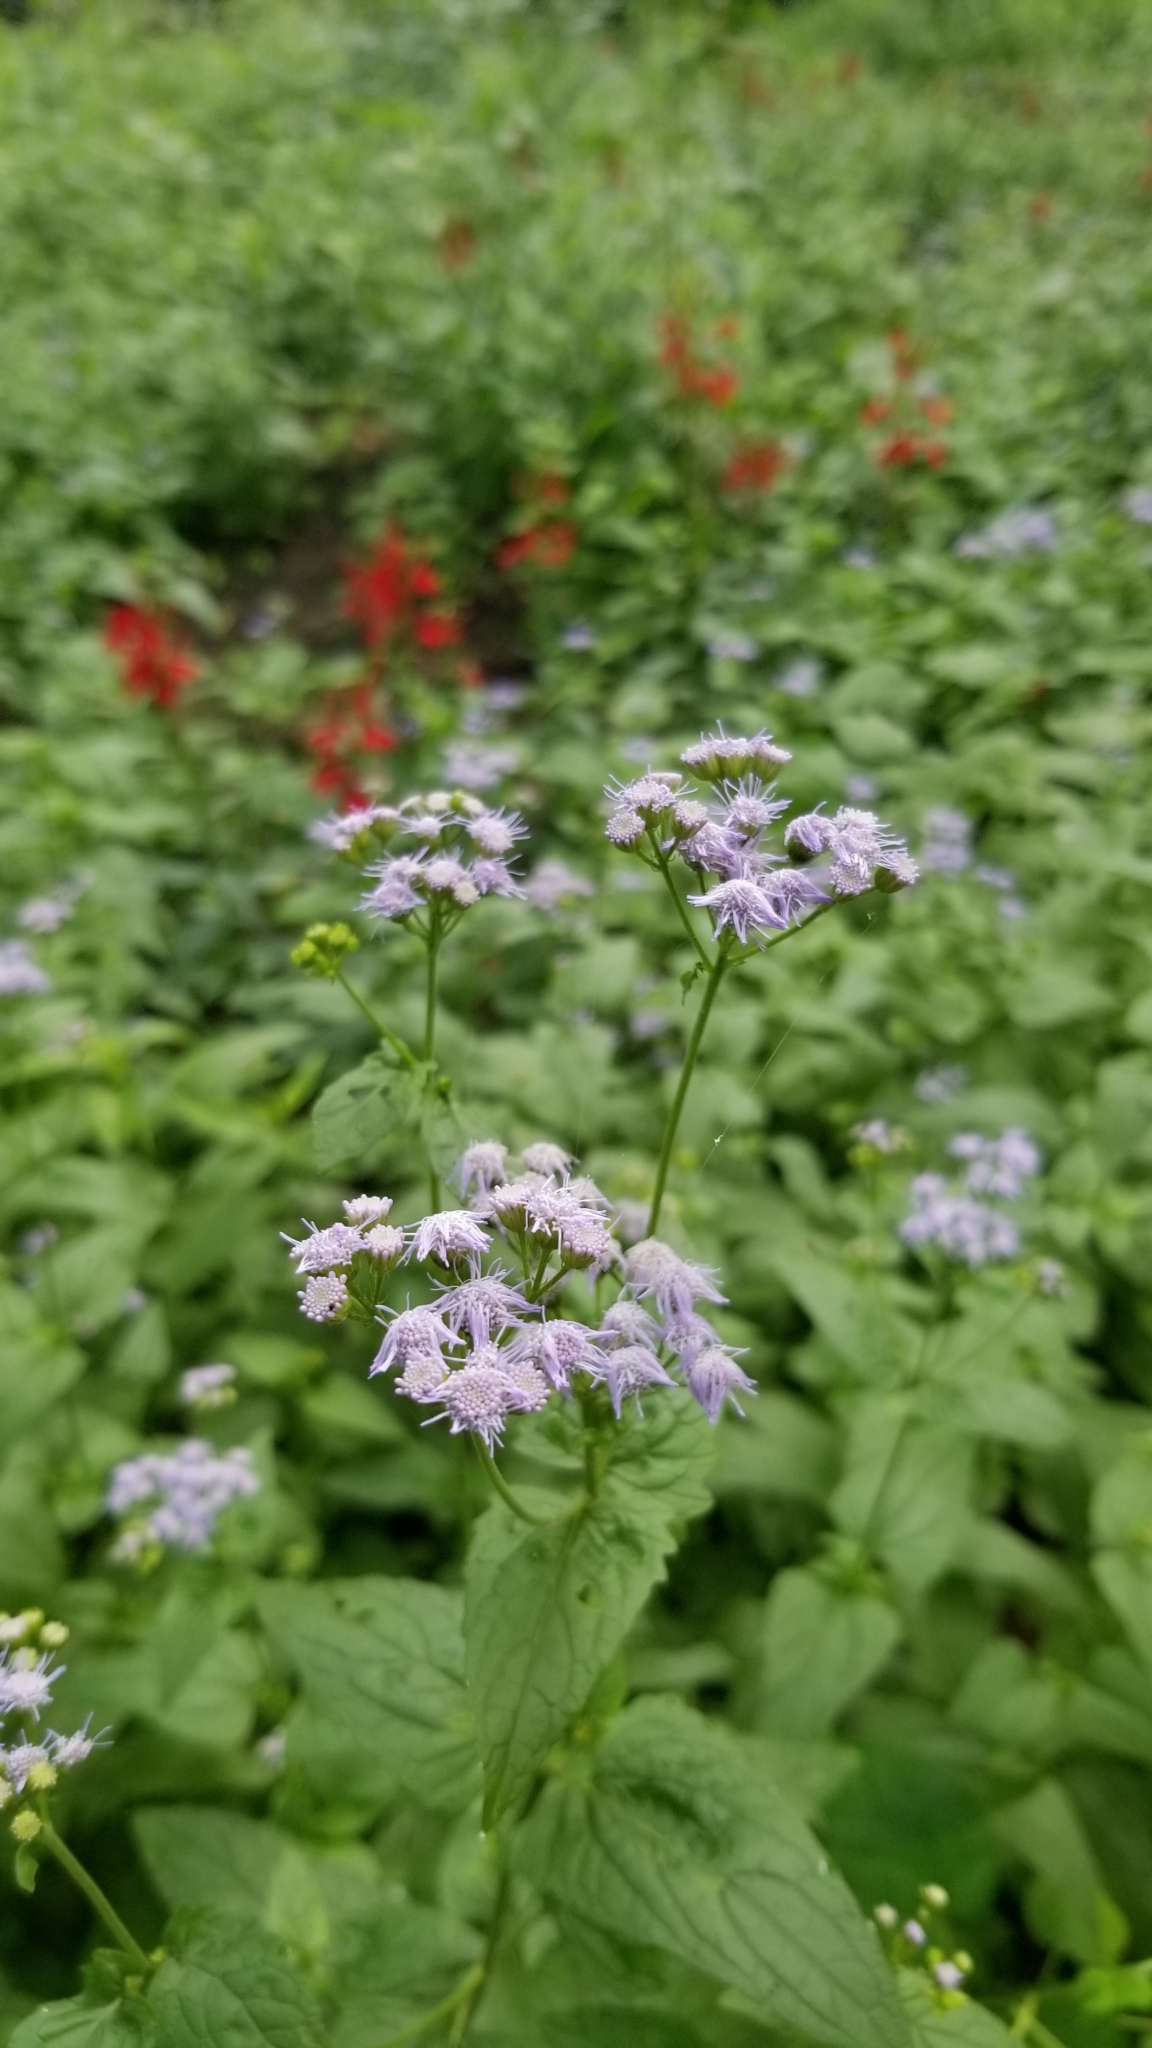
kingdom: Plantae
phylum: Tracheophyta
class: Magnoliopsida
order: Asterales
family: Asteraceae
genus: Conoclinium
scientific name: Conoclinium coelestinum
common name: Blue mistflower
